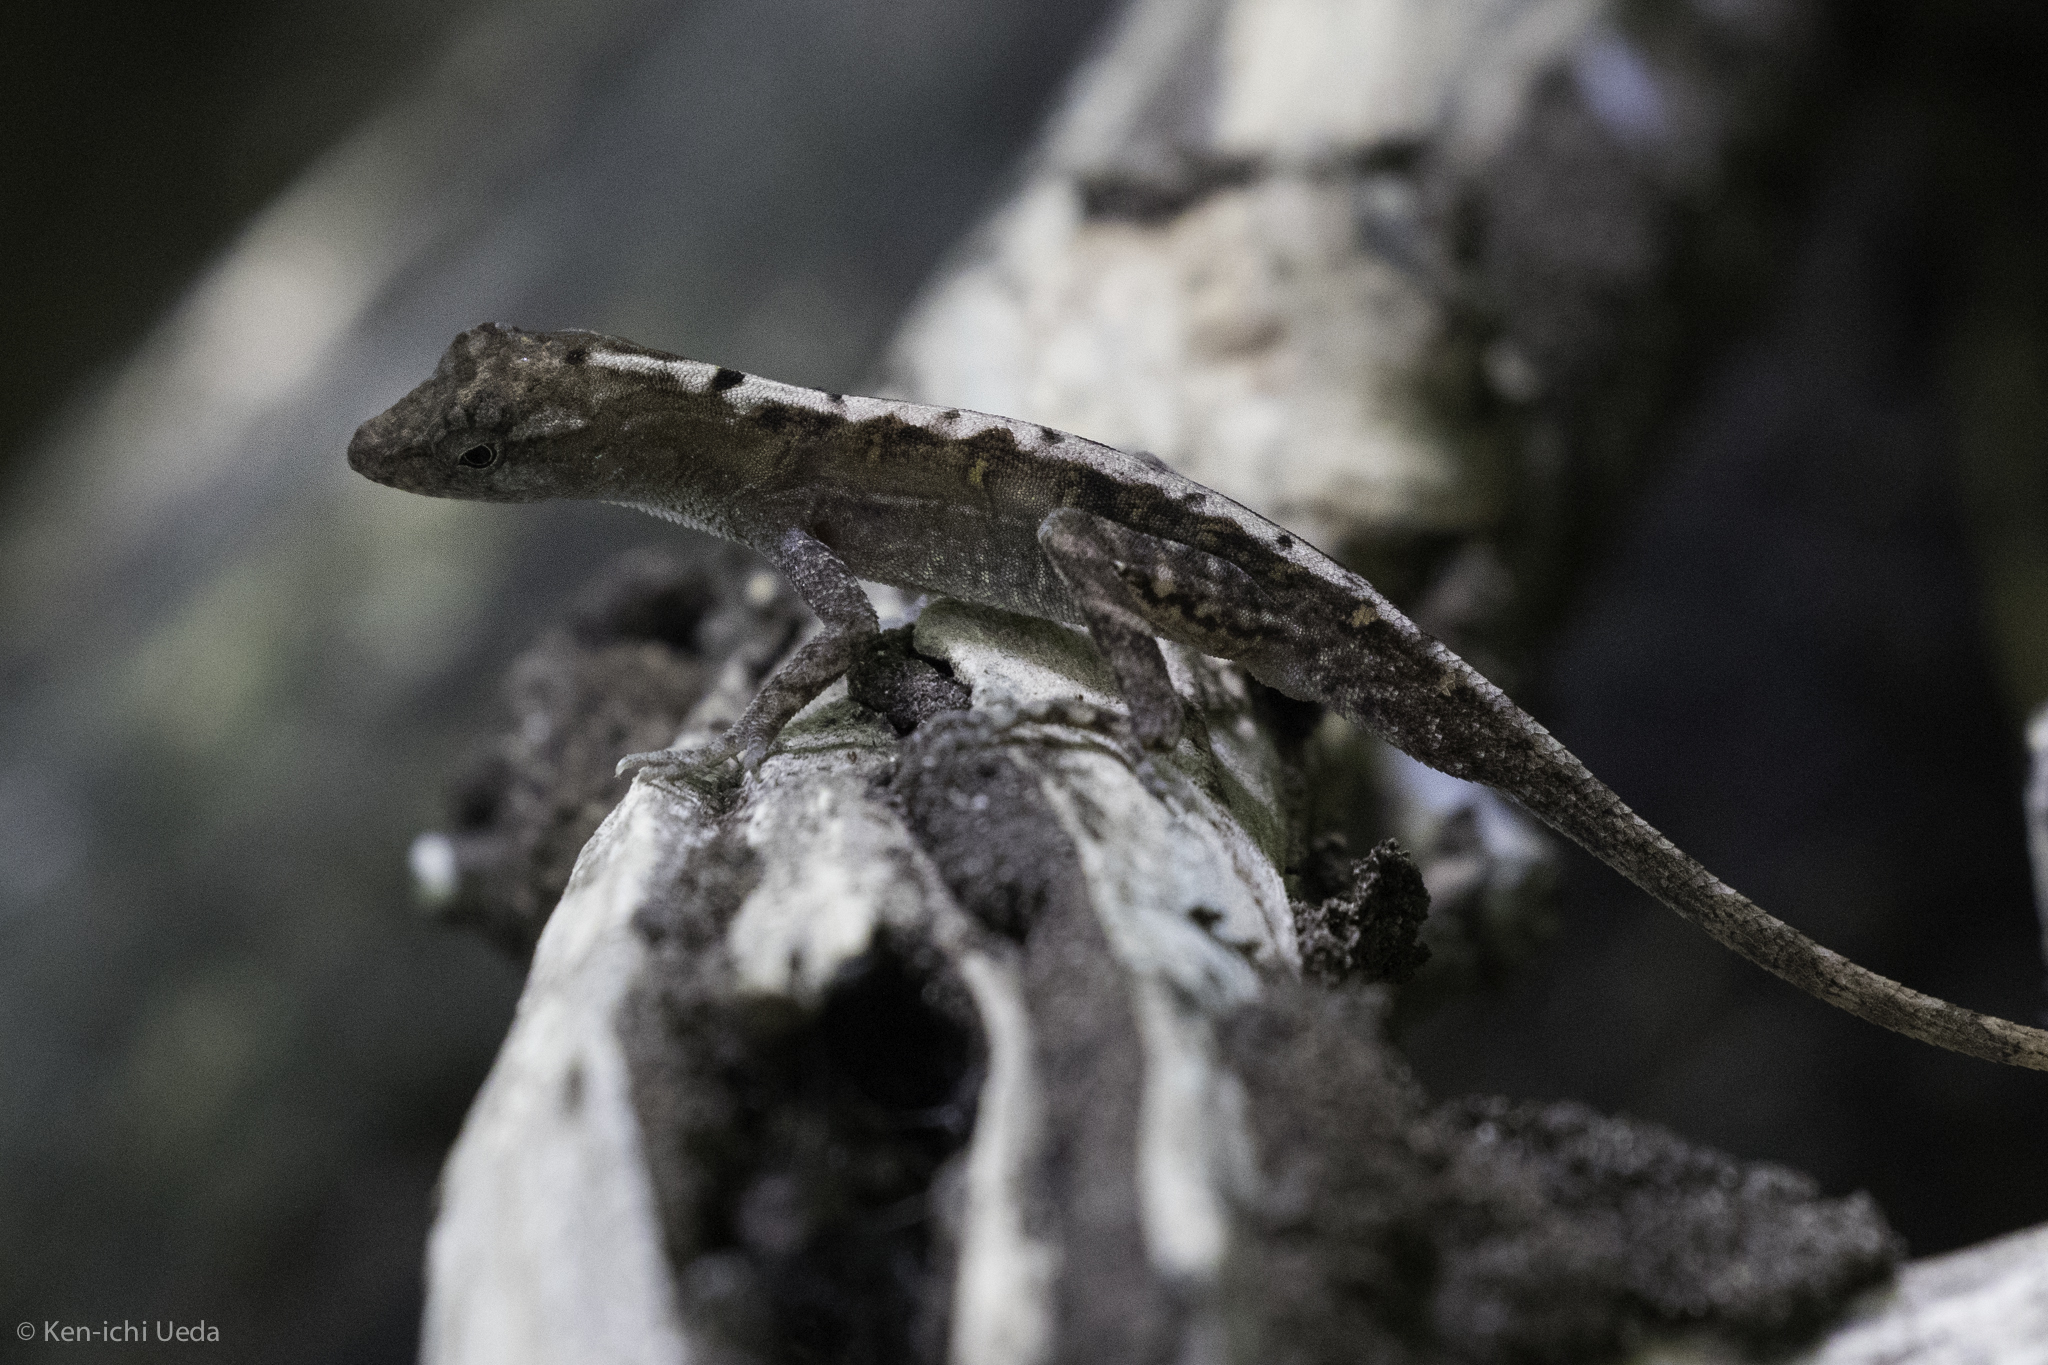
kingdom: Animalia
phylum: Chordata
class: Squamata
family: Dactyloidae
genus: Anolis
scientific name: Anolis humilis
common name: Humble anole
